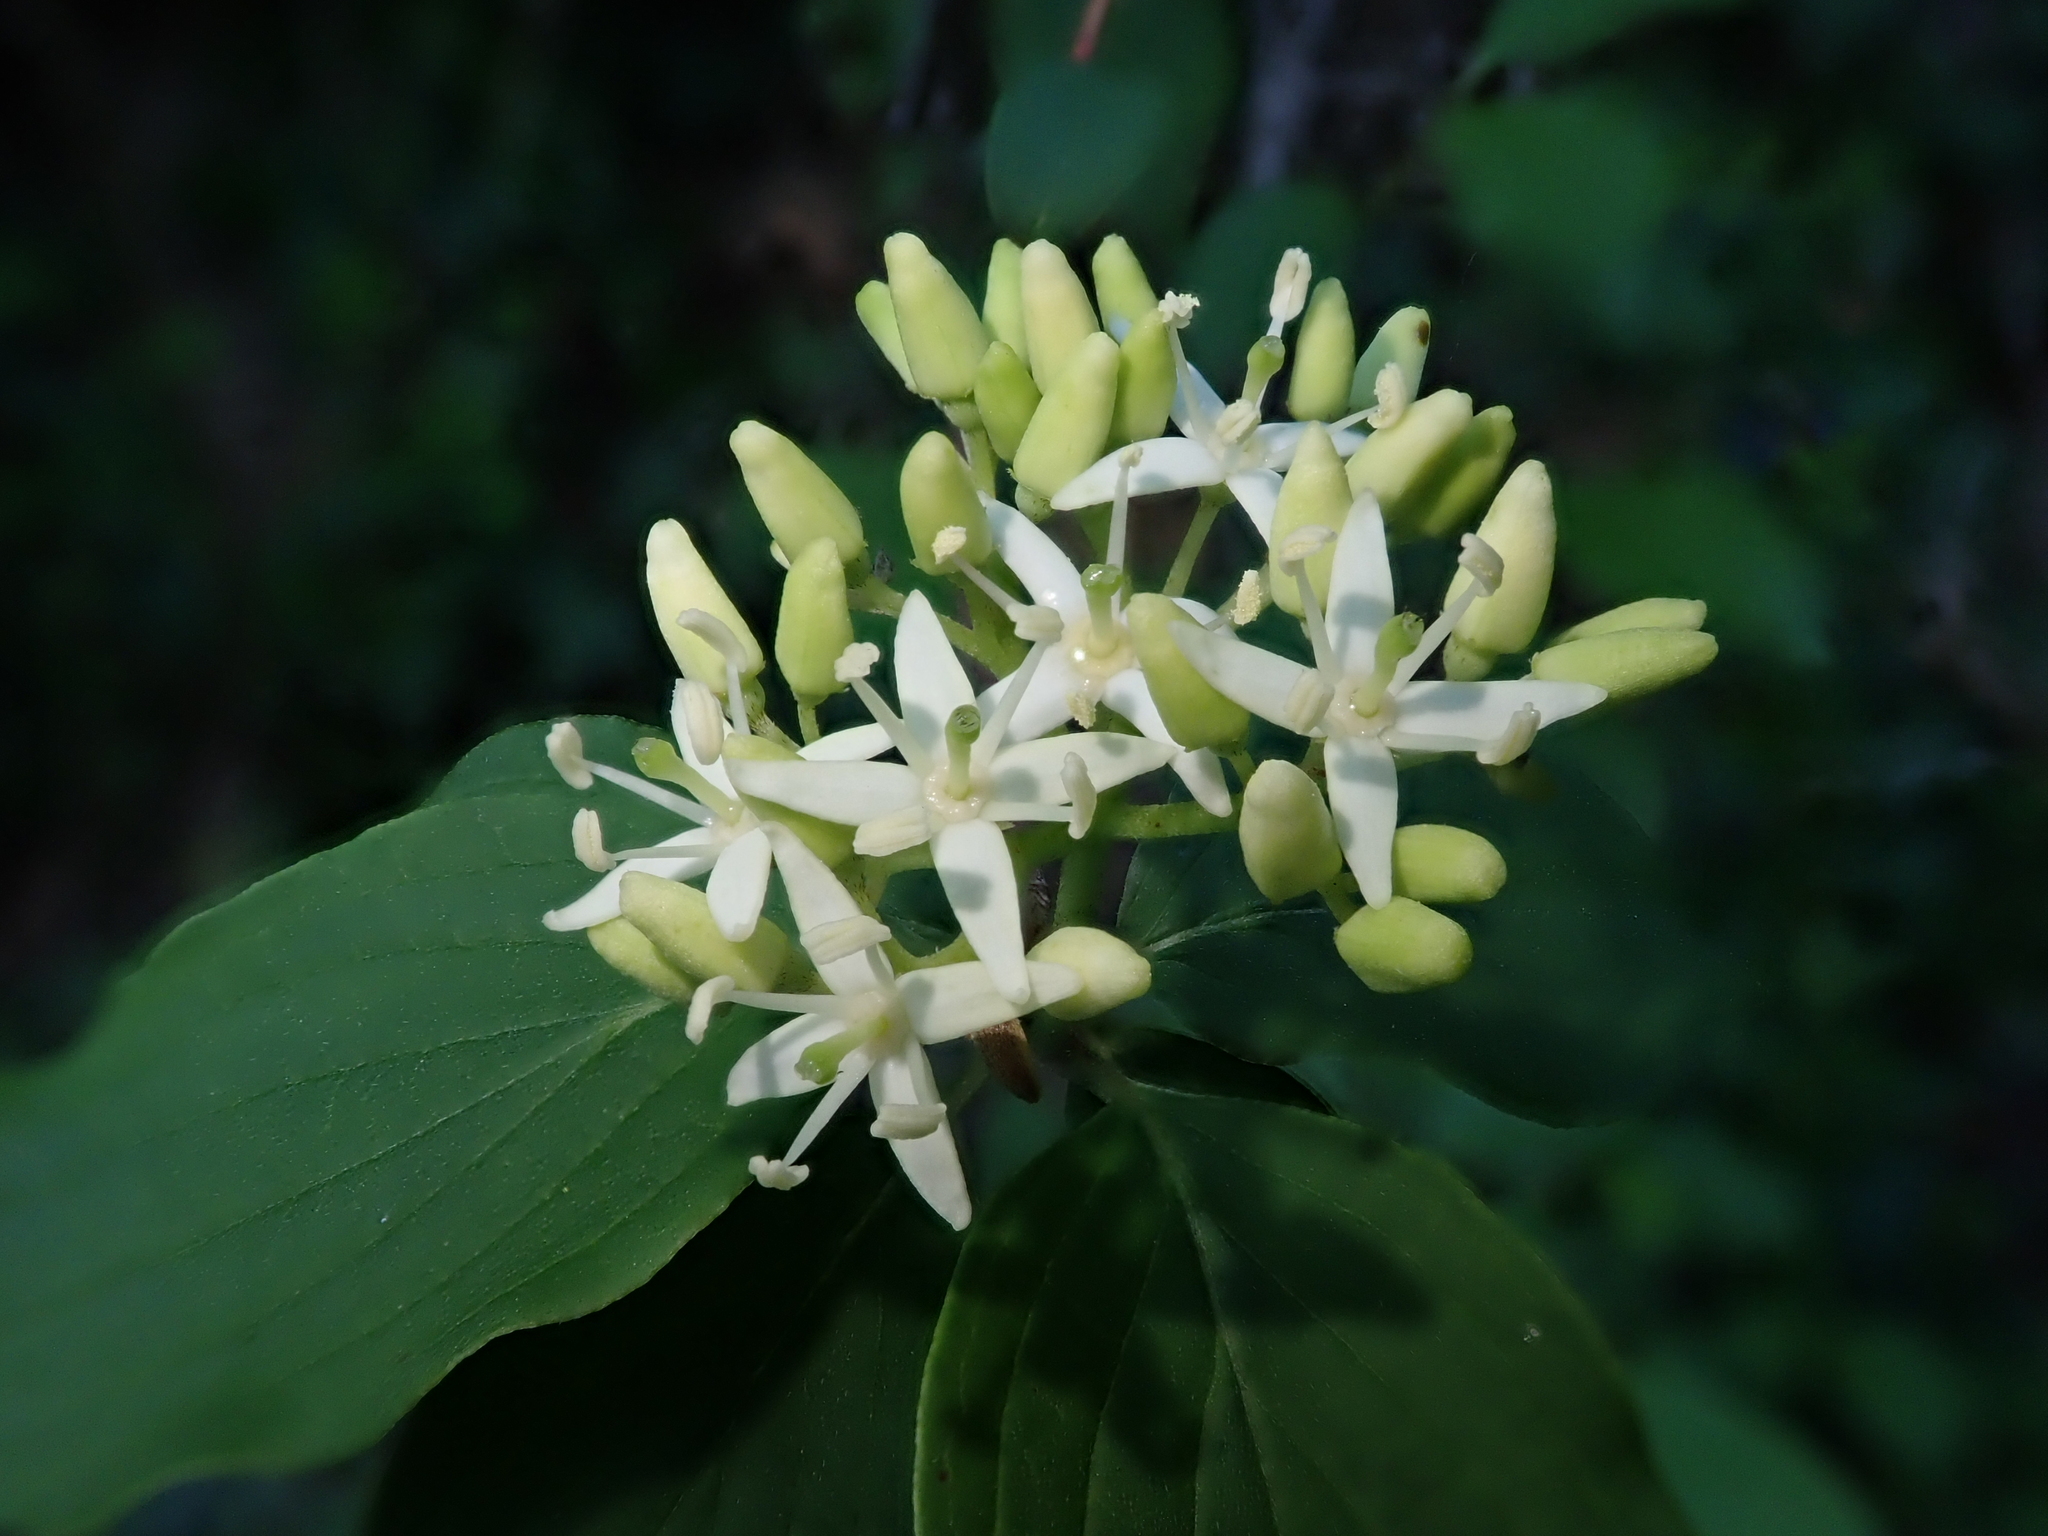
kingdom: Plantae
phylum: Tracheophyta
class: Magnoliopsida
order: Cornales
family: Cornaceae
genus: Cornus
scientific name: Cornus sanguinea
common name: Dogwood
